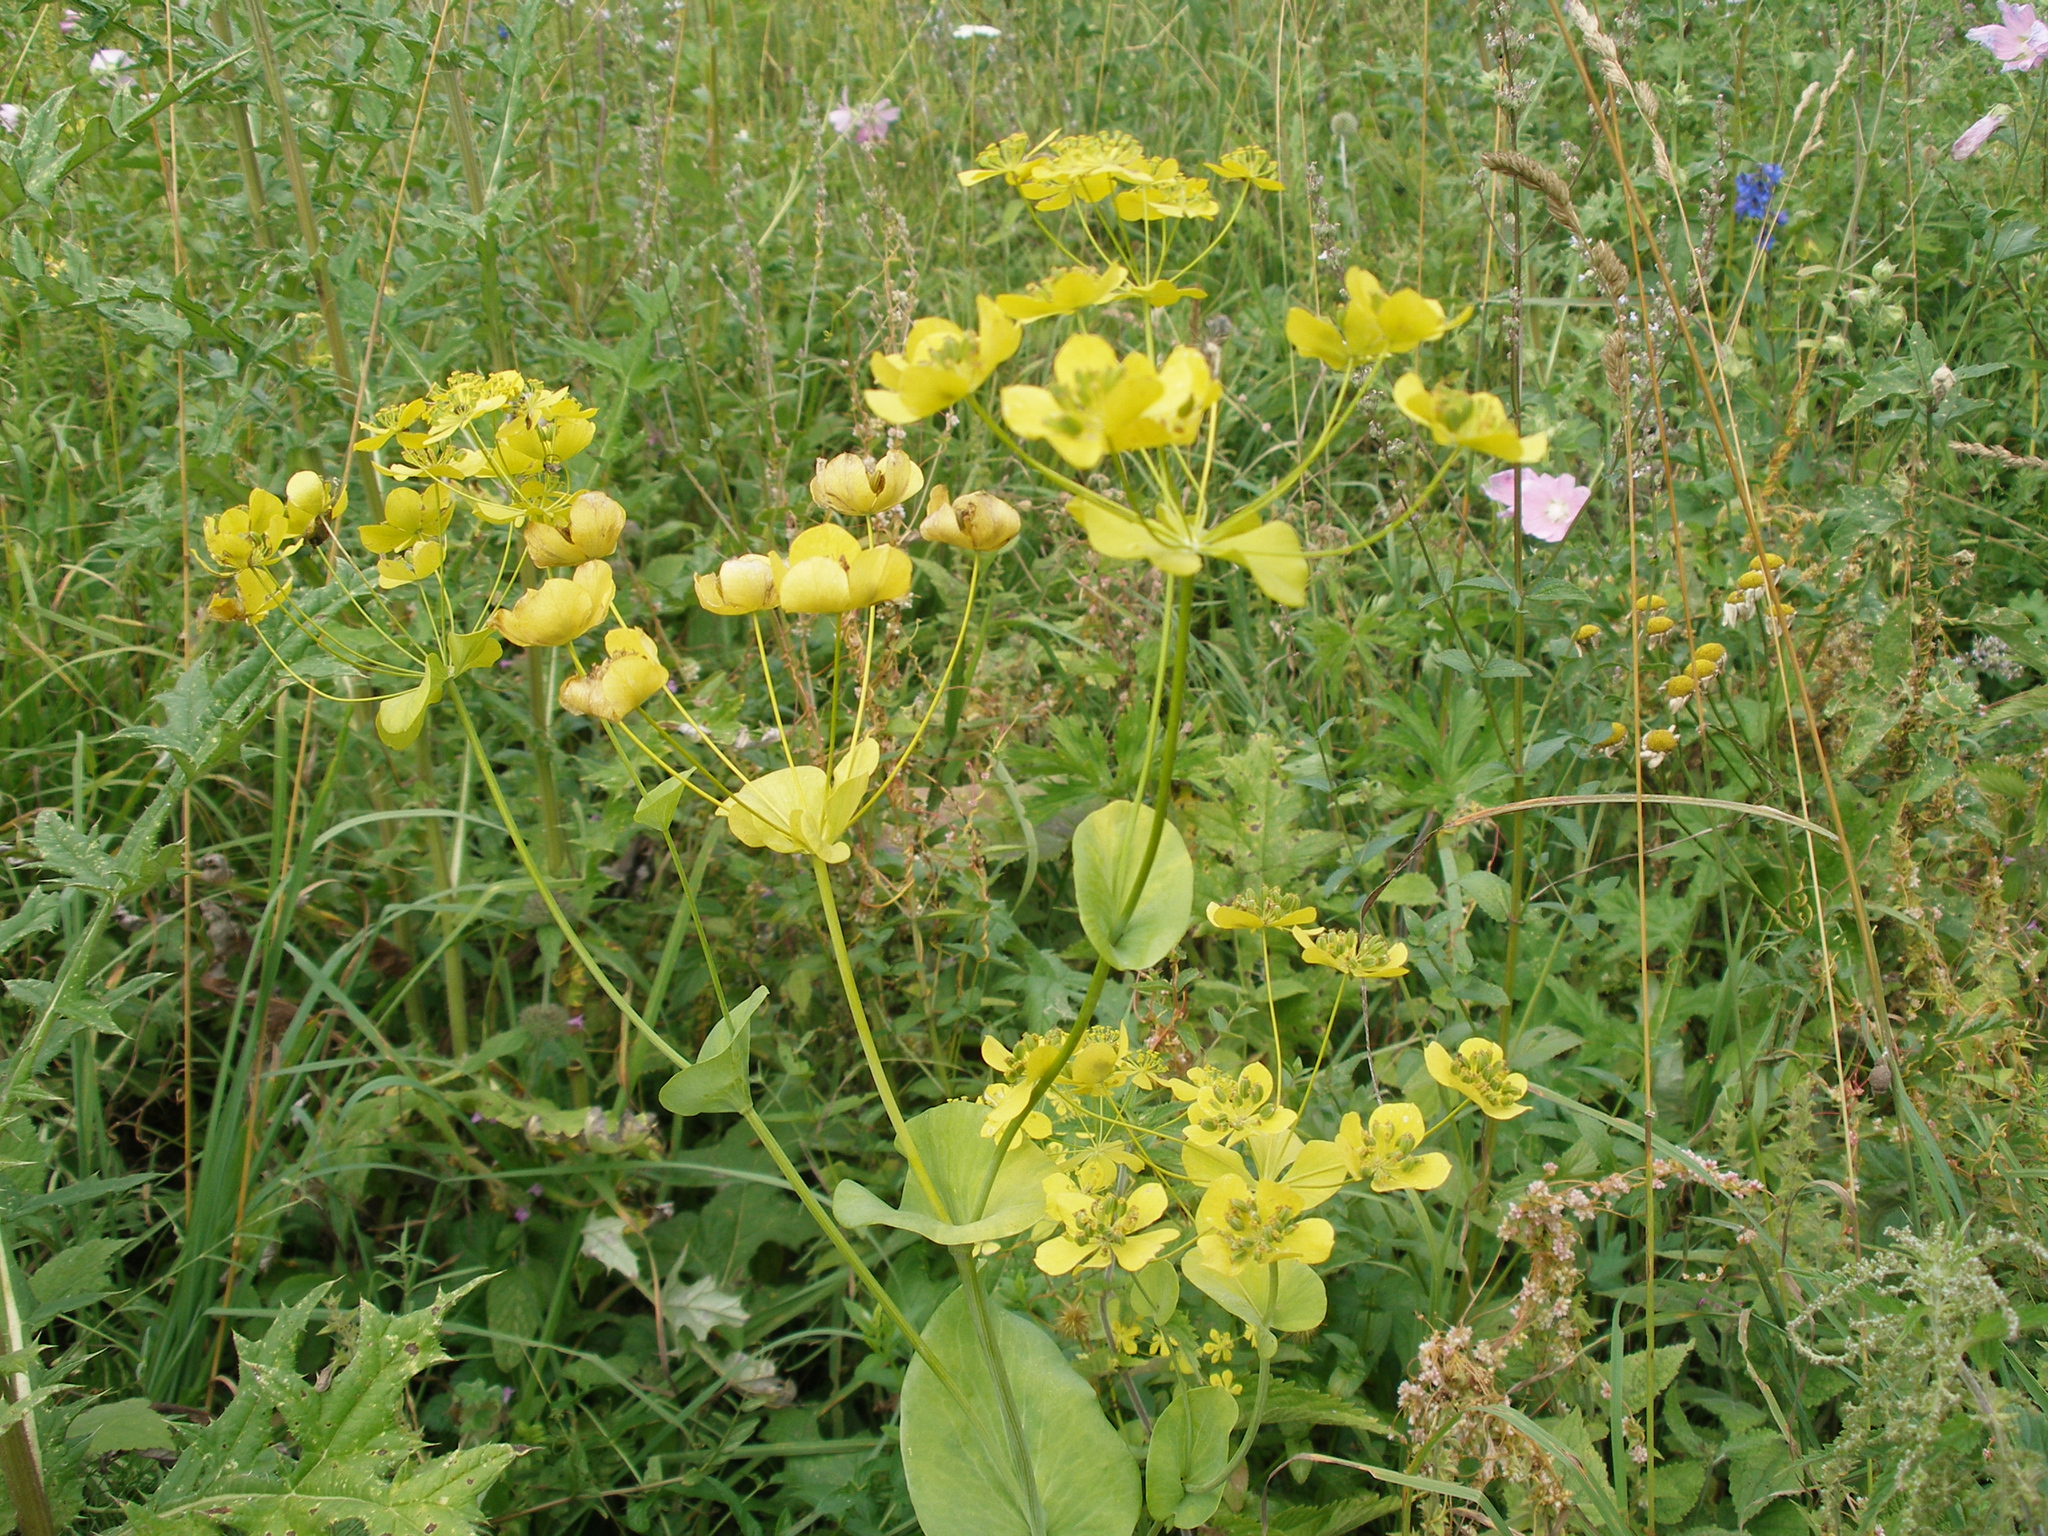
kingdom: Plantae
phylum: Tracheophyta
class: Magnoliopsida
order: Apiales
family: Apiaceae
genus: Bupleurum
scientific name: Bupleurum aureum
